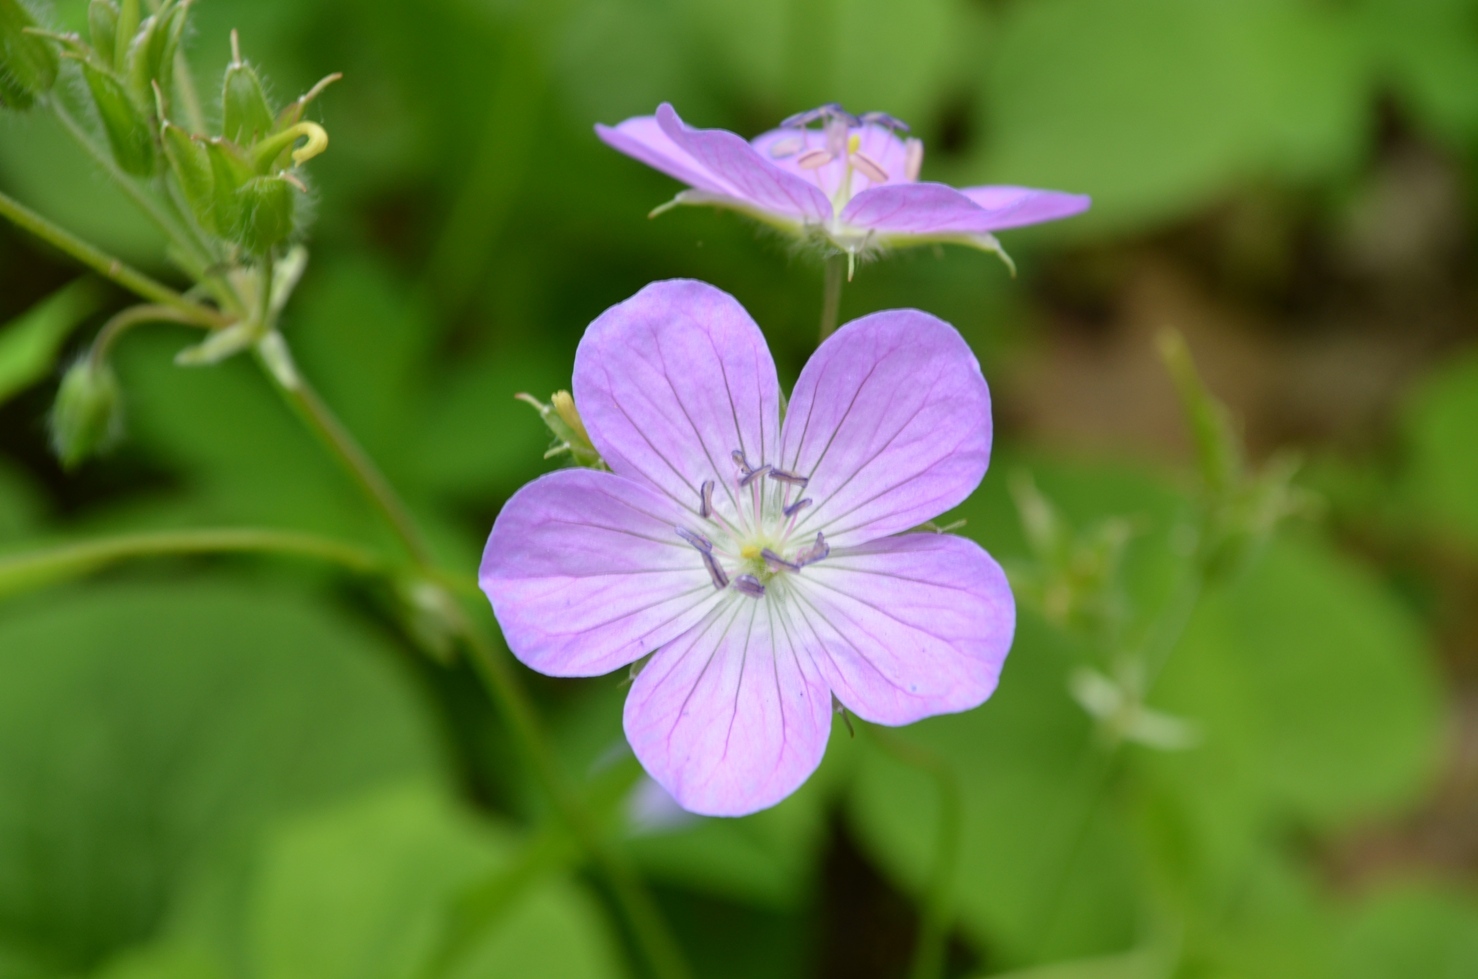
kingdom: Plantae
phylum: Tracheophyta
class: Magnoliopsida
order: Geraniales
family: Geraniaceae
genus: Geranium
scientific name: Geranium maculatum
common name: Spotted geranium
